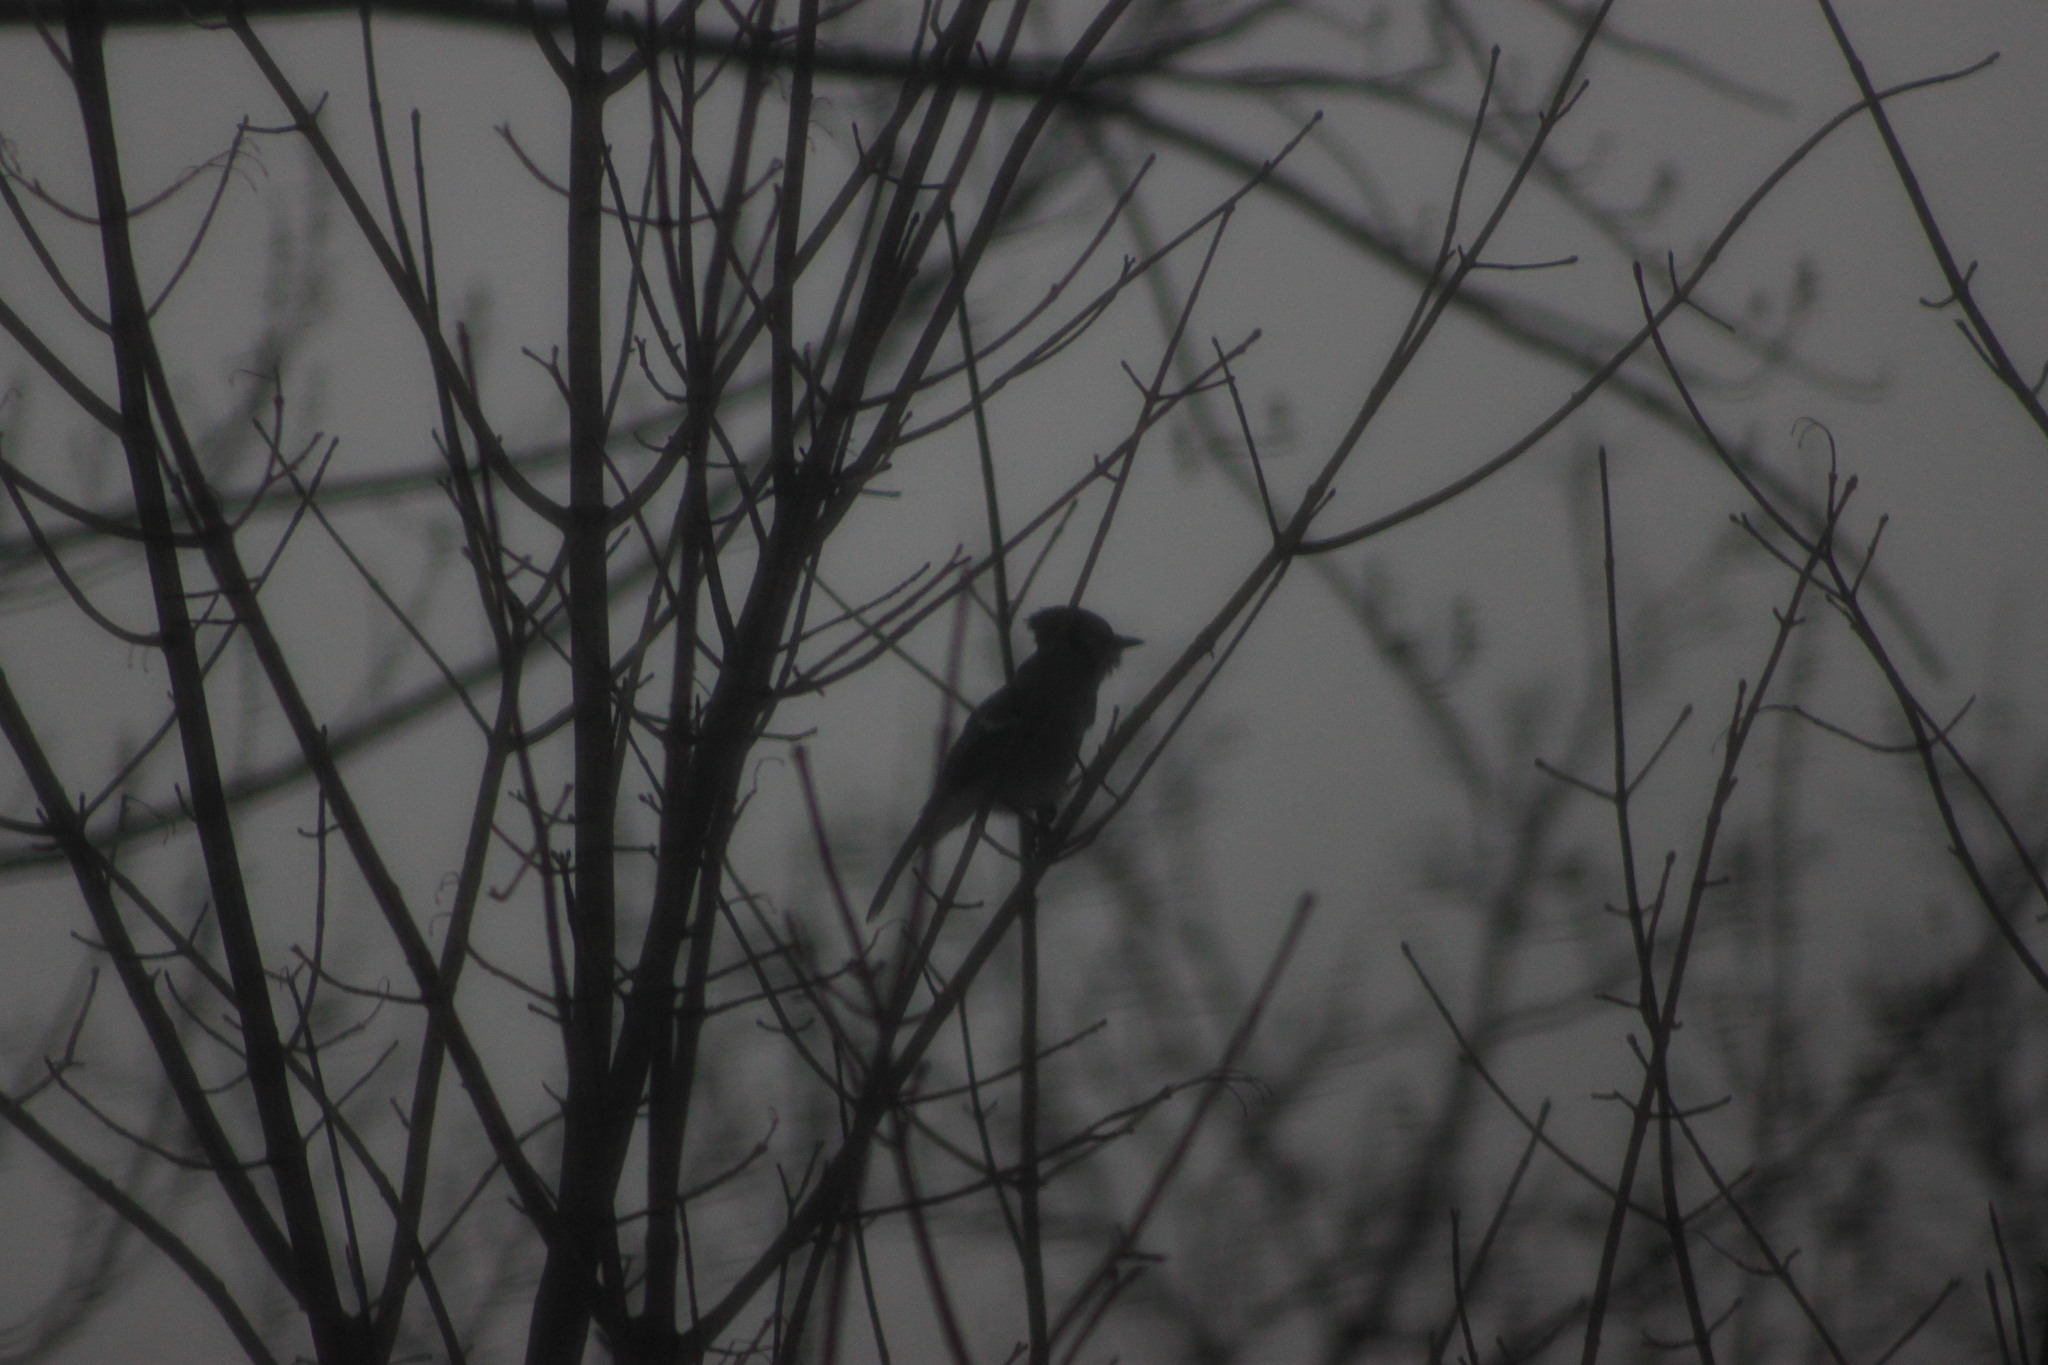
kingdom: Animalia
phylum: Chordata
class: Aves
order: Passeriformes
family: Corvidae
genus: Cyanocitta
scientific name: Cyanocitta cristata
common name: Blue jay
